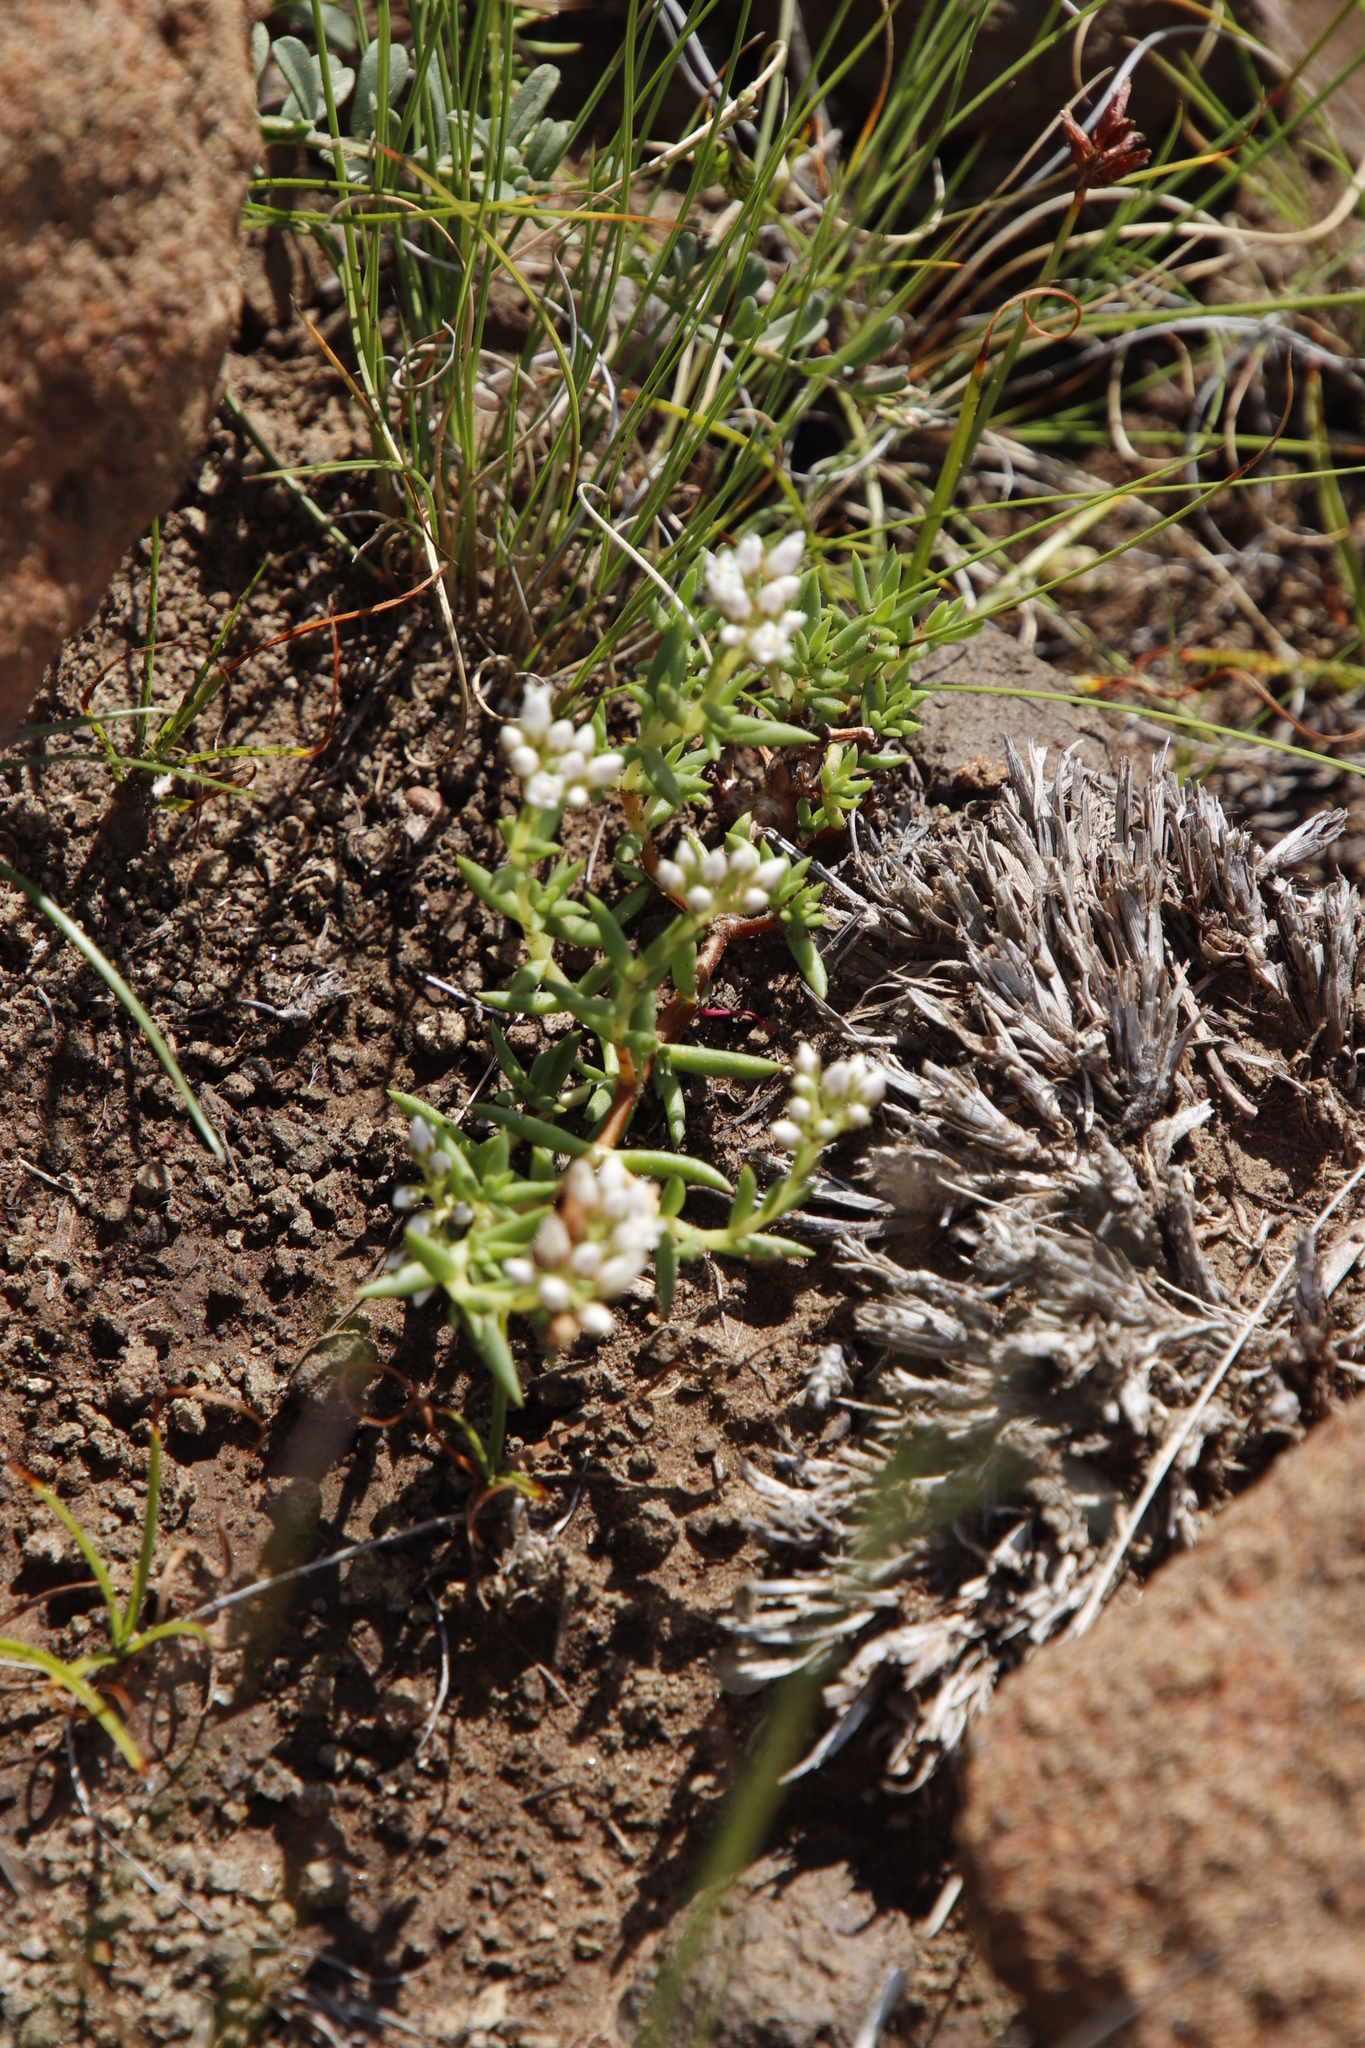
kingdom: Plantae
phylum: Tracheophyta
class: Magnoliopsida
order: Saxifragales
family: Crassulaceae
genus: Crassula
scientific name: Crassula dependens
